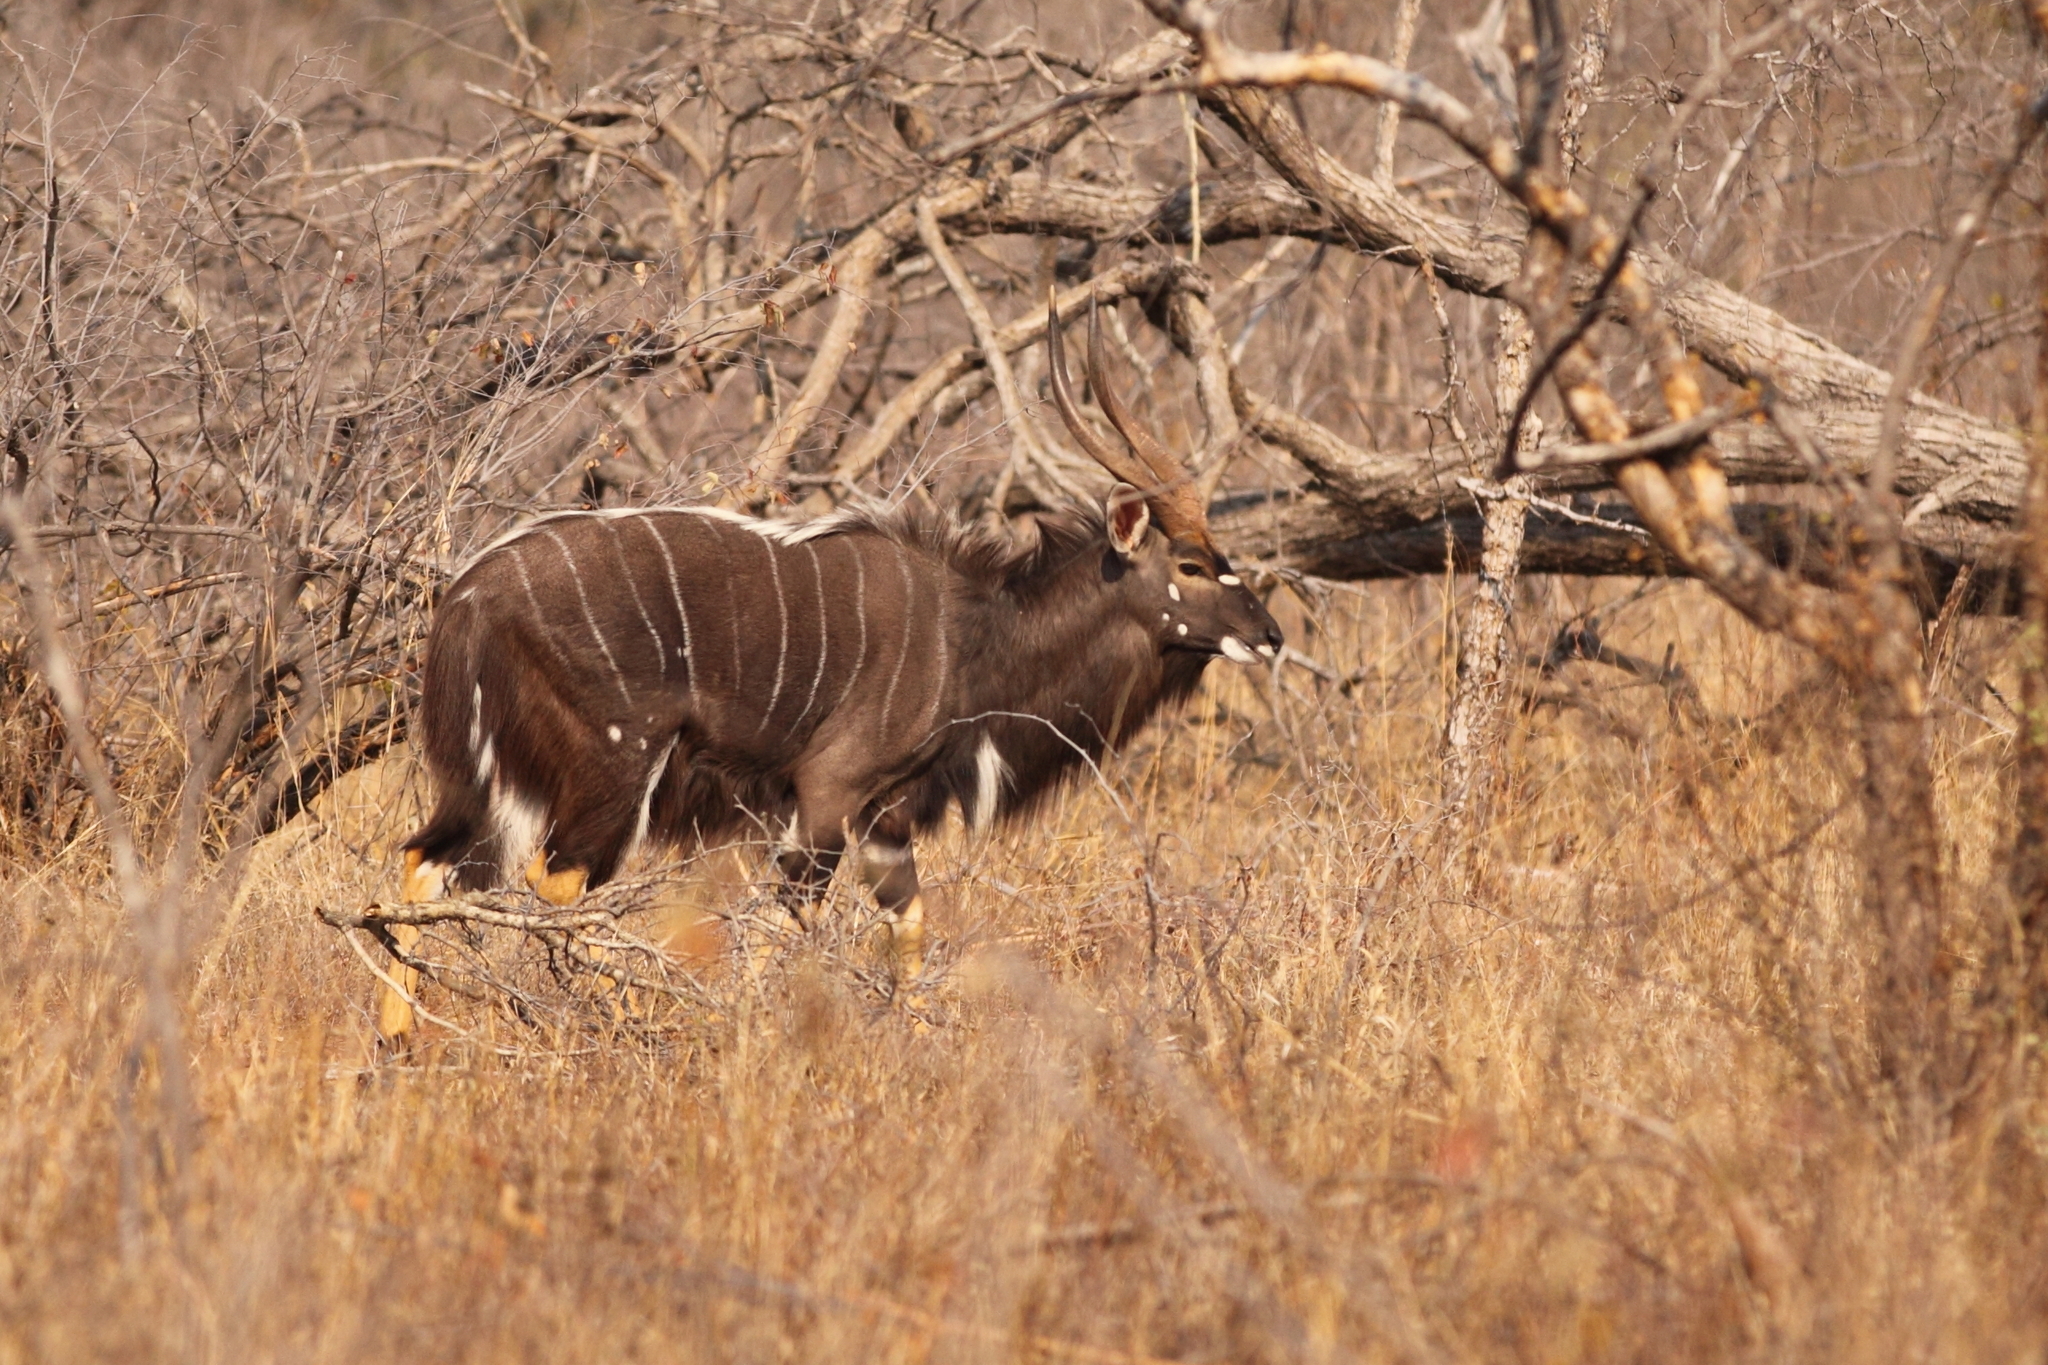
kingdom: Animalia
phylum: Chordata
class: Mammalia
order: Artiodactyla
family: Bovidae
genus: Tragelaphus
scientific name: Tragelaphus angasii
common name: Nyala
